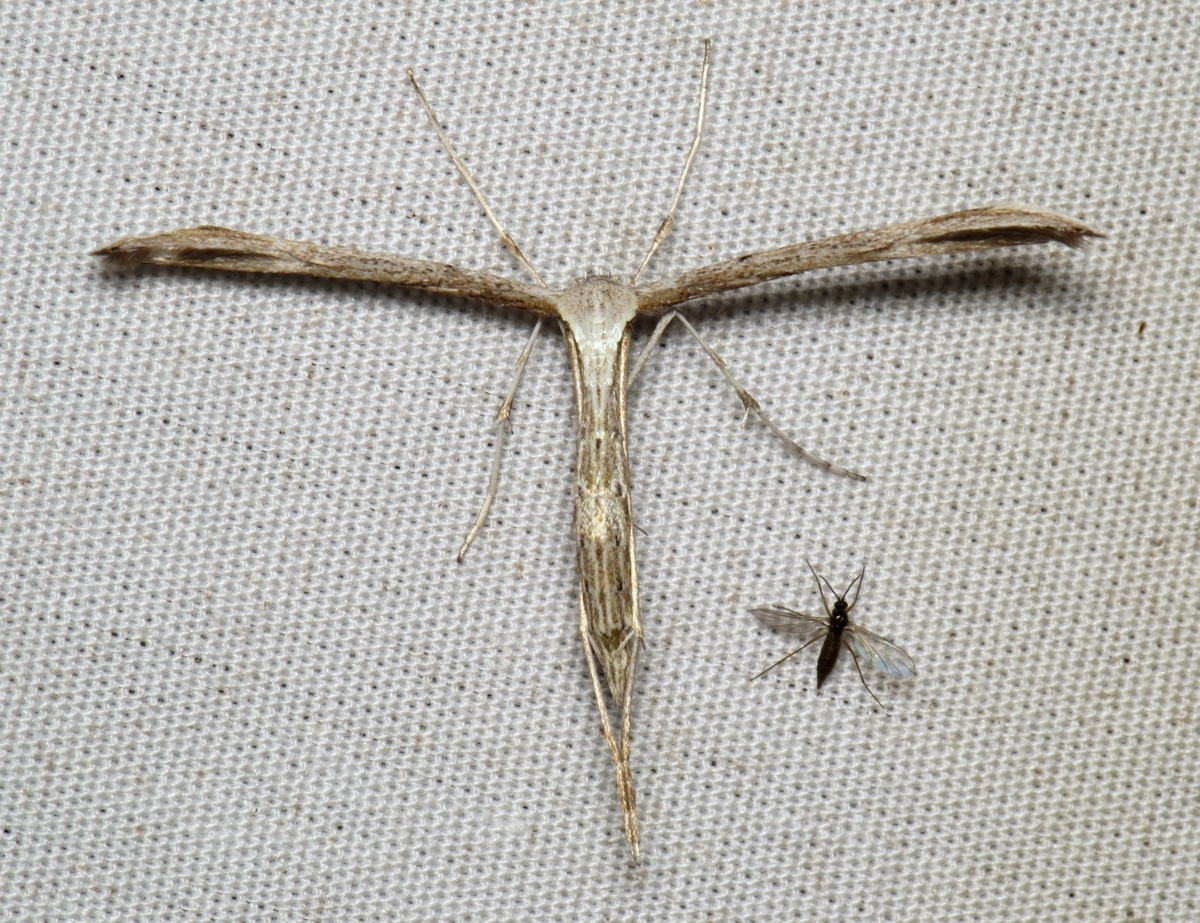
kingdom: Animalia
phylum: Arthropoda
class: Insecta
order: Lepidoptera
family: Pterophoridae
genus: Emmelina
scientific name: Emmelina monodactyla
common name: Common plume
